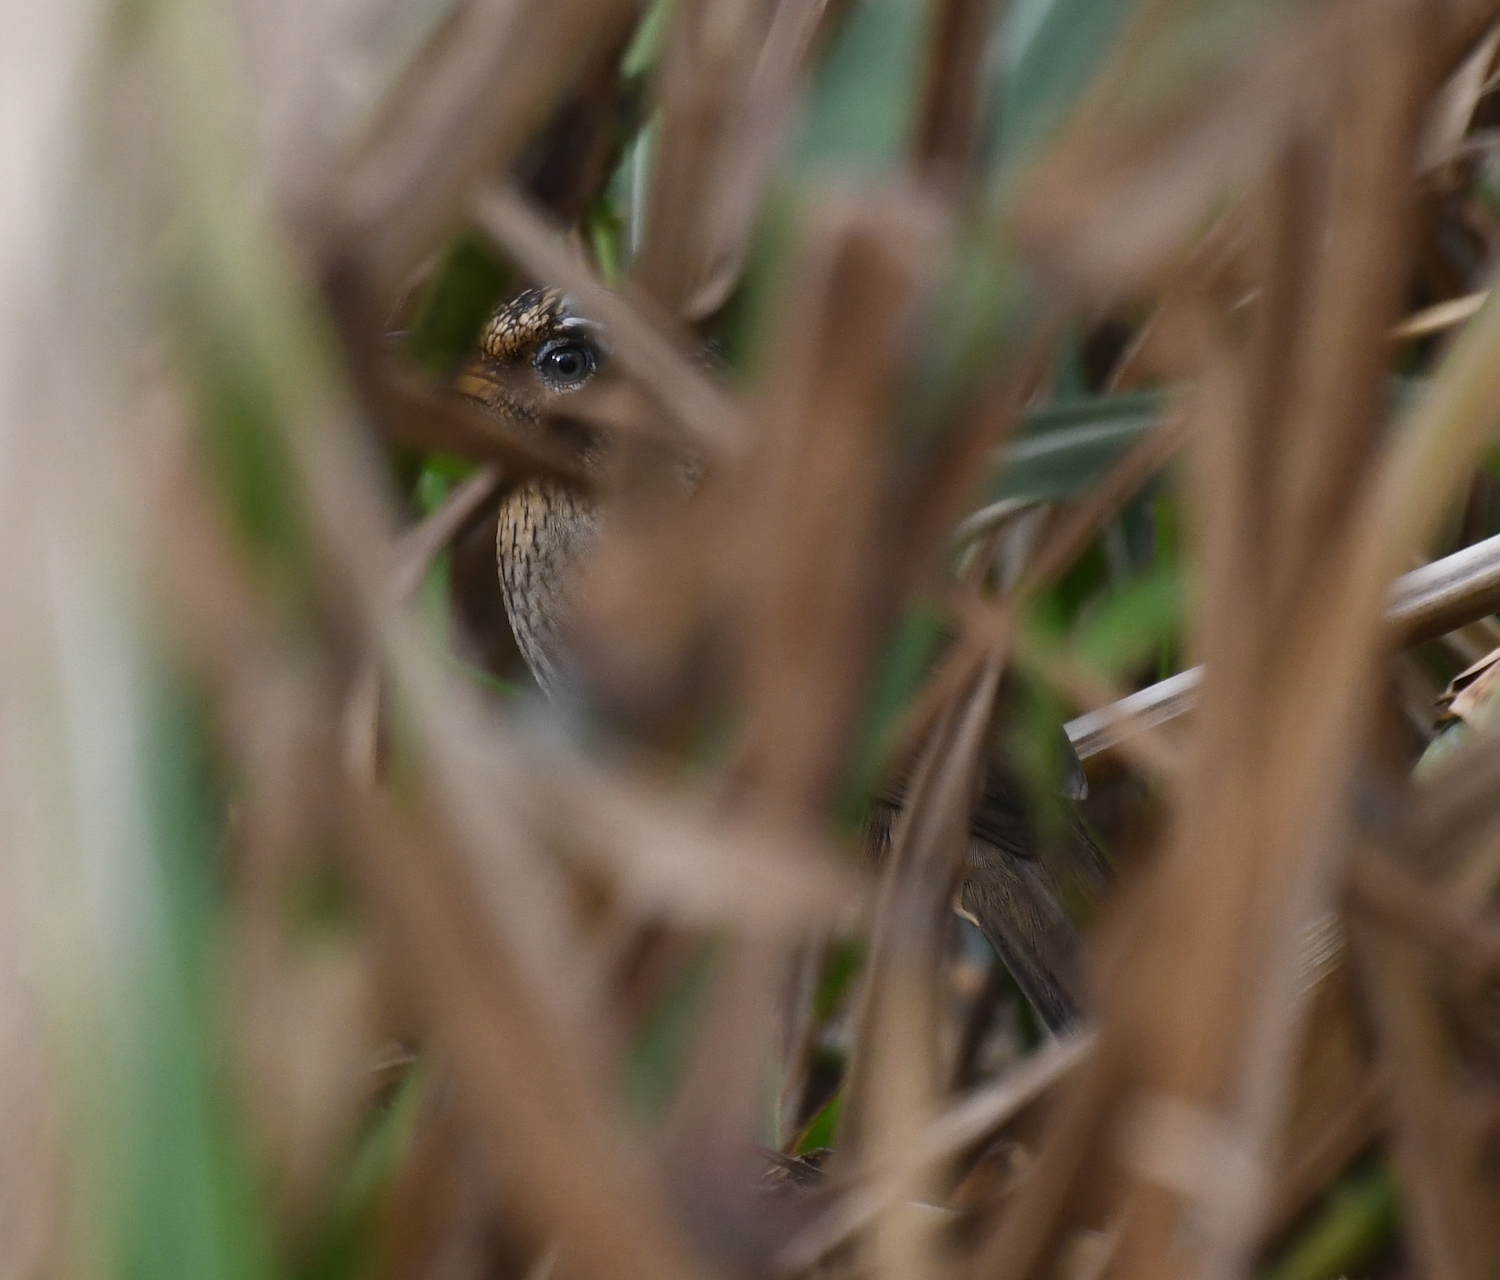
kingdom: Animalia
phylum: Chordata
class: Aves
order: Passeriformes
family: Leiothrichidae
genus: Garrulax
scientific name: Garrulax canorus
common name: Chinese hwamei
